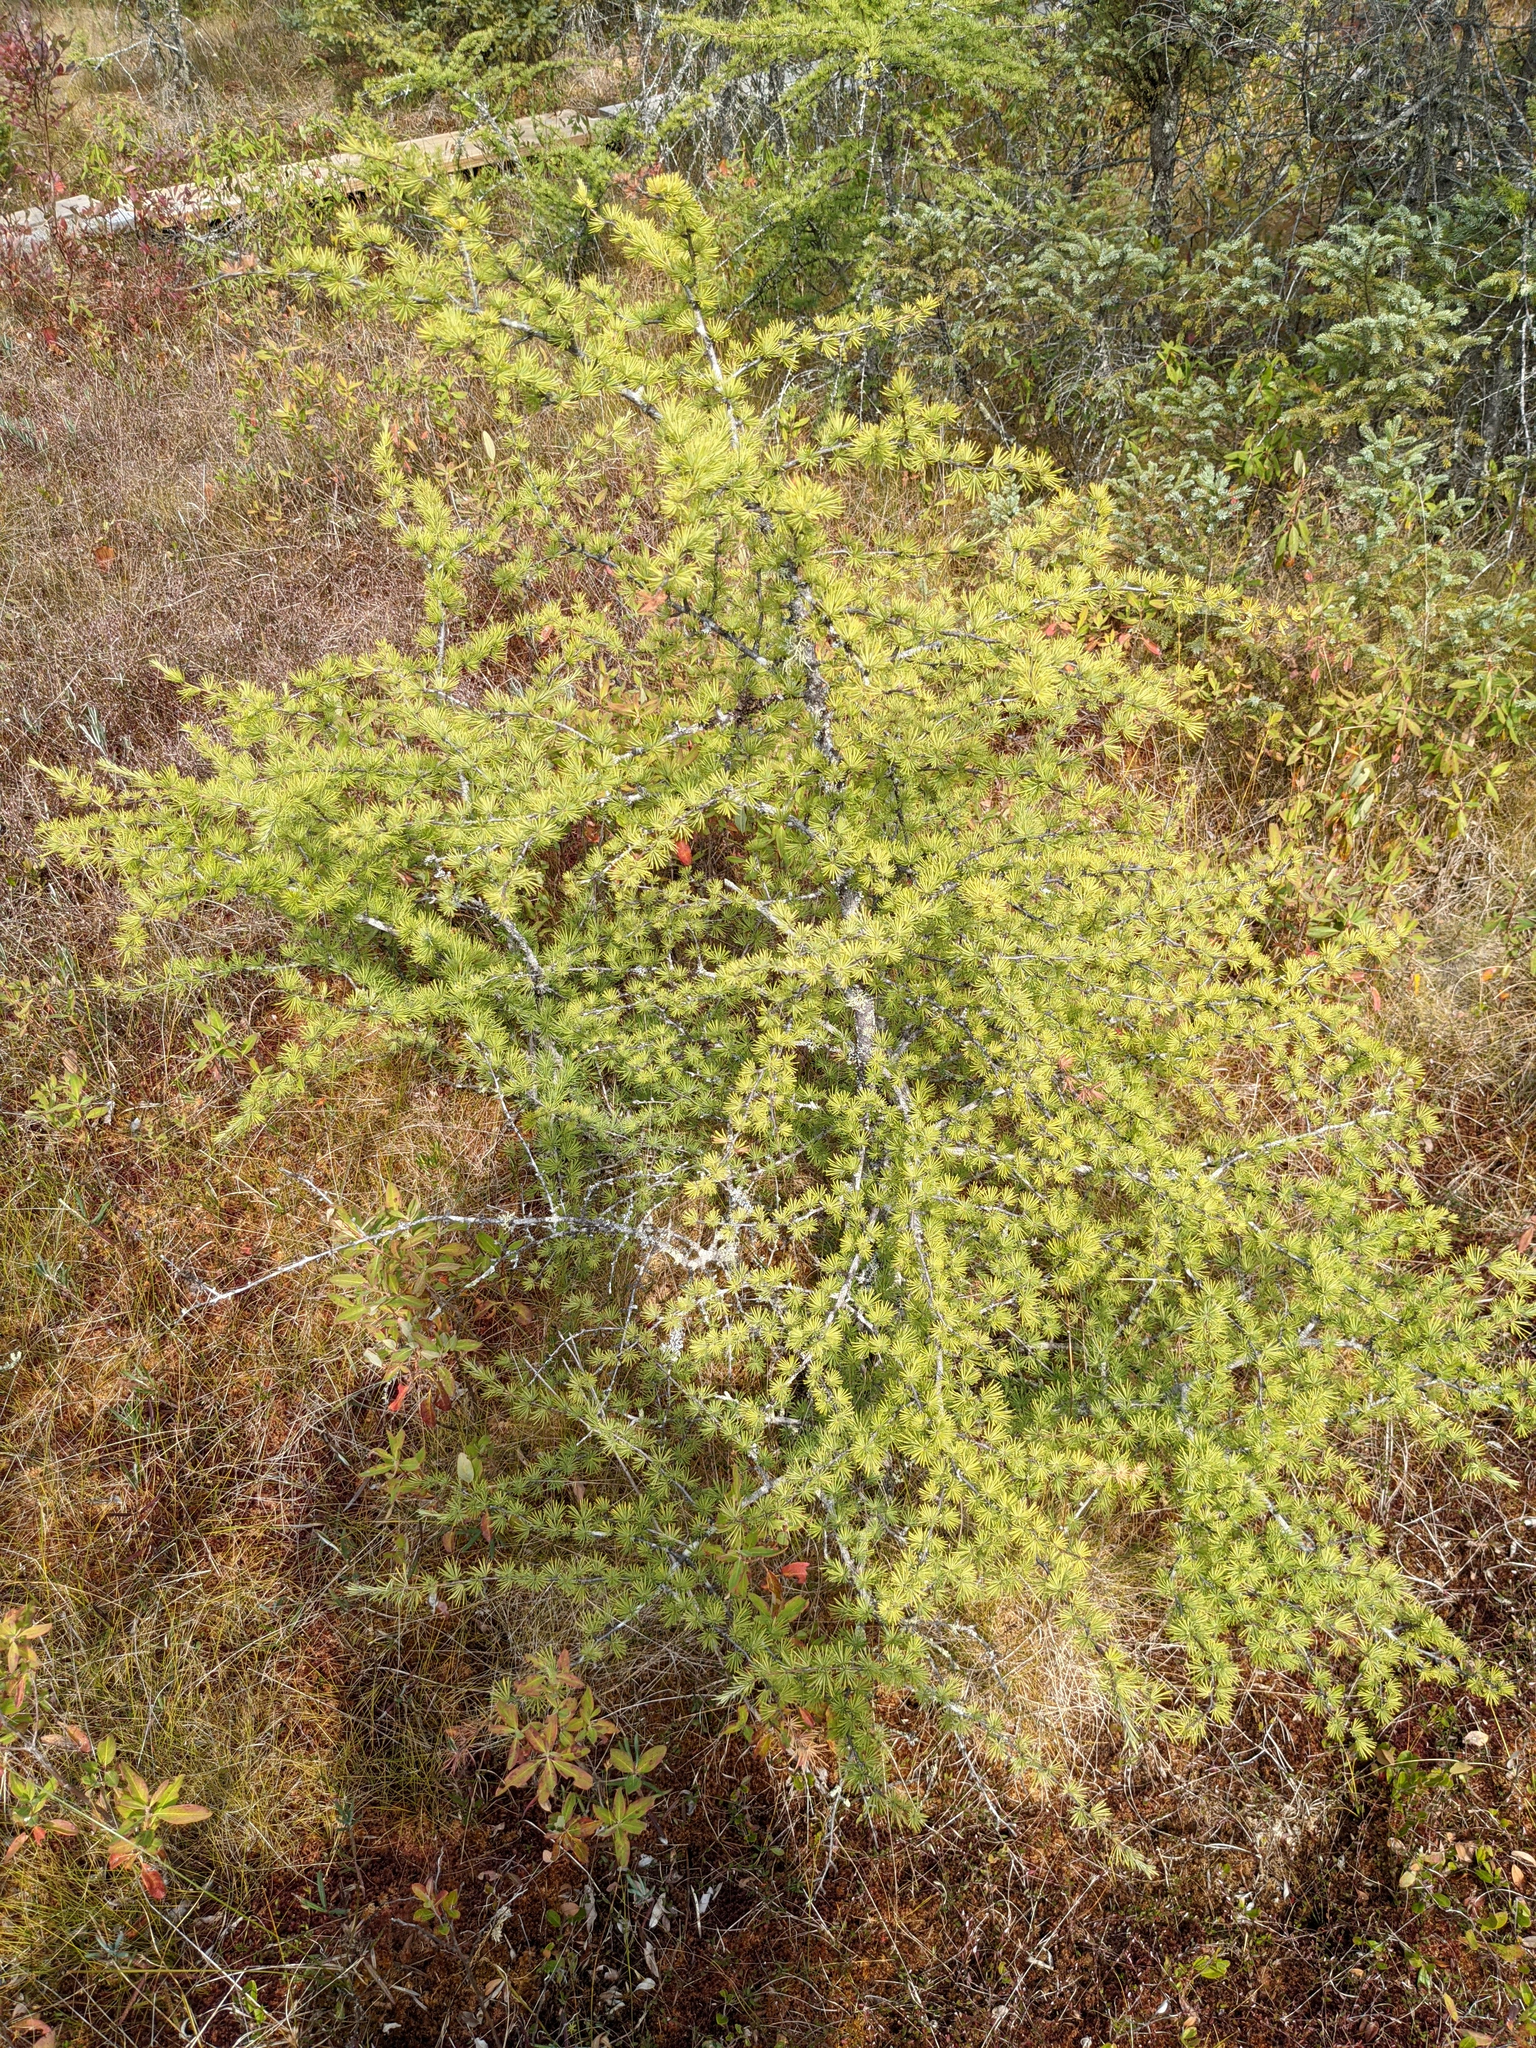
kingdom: Plantae
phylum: Tracheophyta
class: Pinopsida
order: Pinales
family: Pinaceae
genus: Larix
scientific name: Larix laricina
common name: American larch
